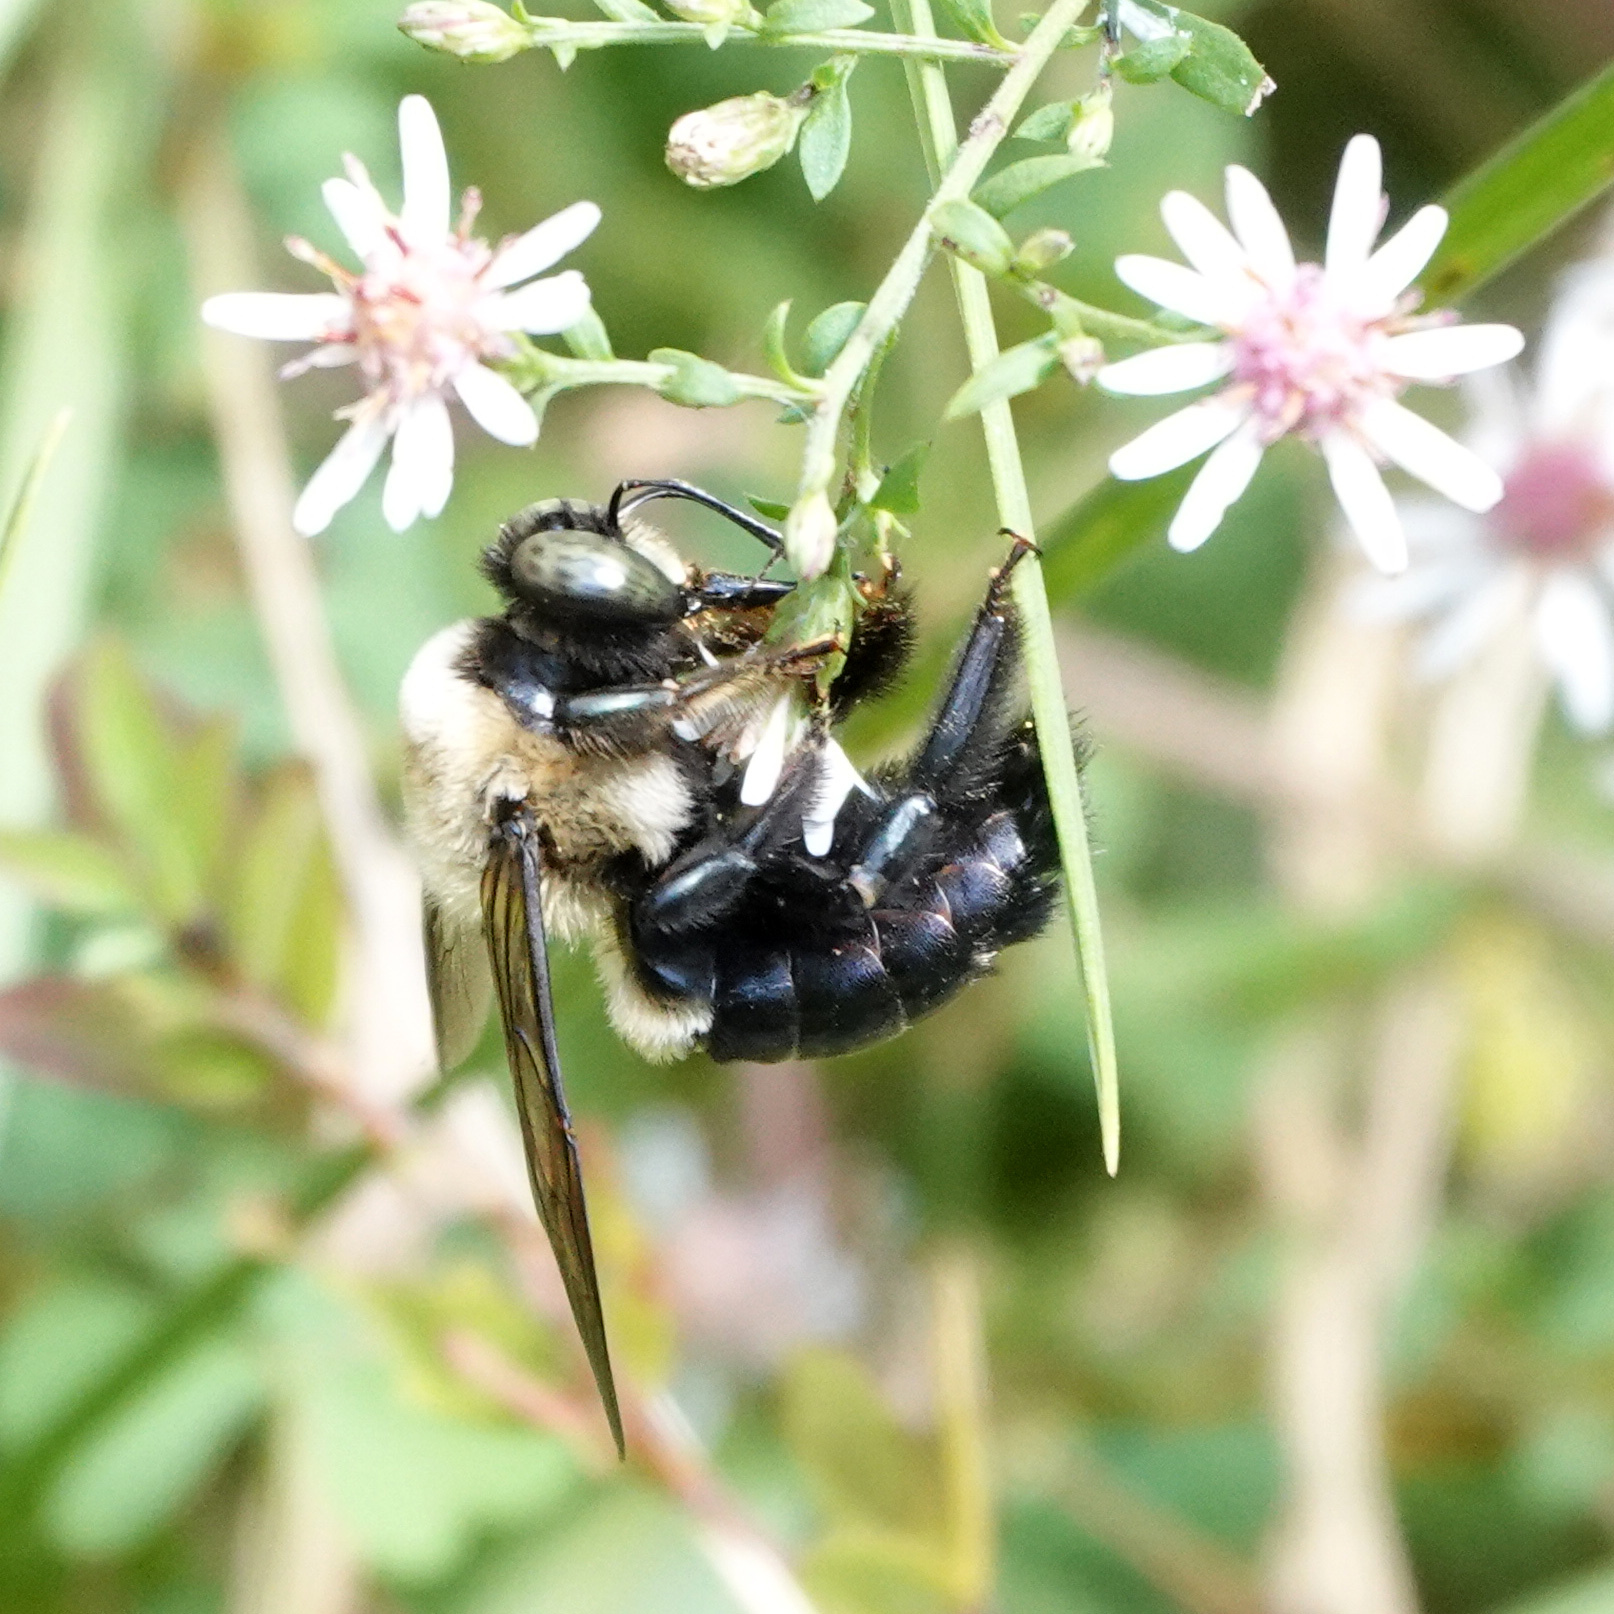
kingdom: Animalia
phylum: Arthropoda
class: Insecta
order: Hymenoptera
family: Apidae
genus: Xylocopa
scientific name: Xylocopa virginica
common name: Carpenter bee
